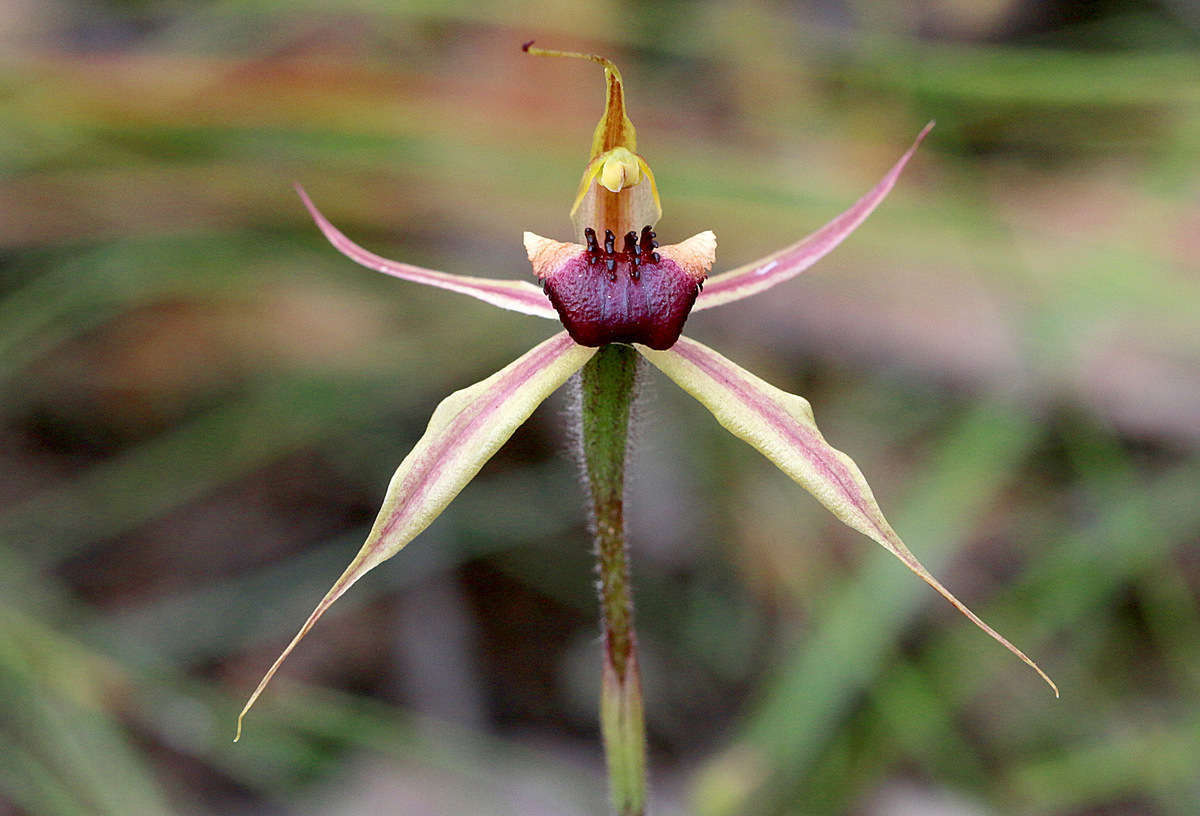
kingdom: Plantae
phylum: Tracheophyta
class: Liliopsida
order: Asparagales
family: Orchidaceae
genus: Caladenia
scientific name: Caladenia clavigera
